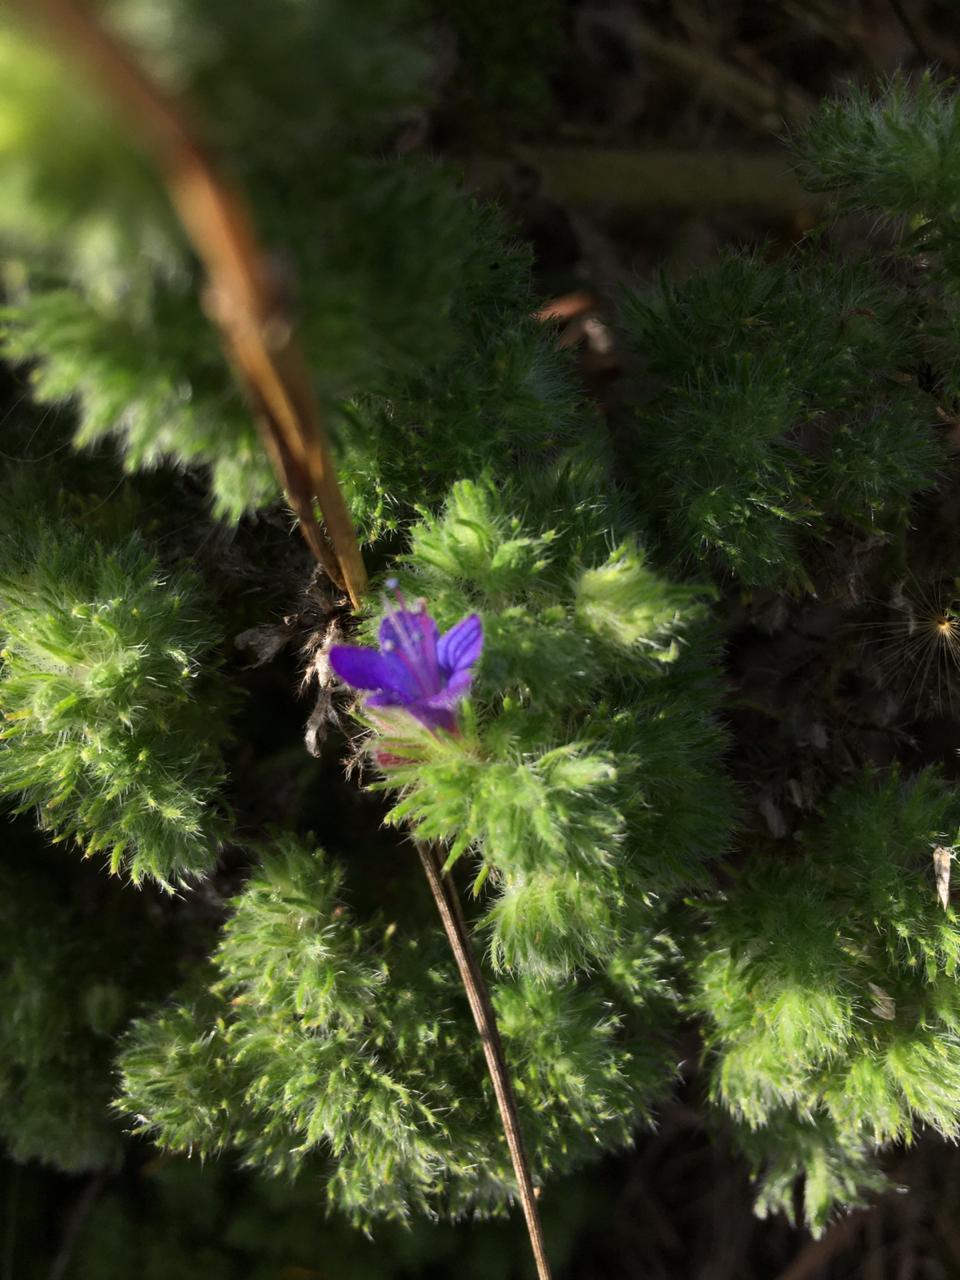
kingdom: Plantae
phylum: Tracheophyta
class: Magnoliopsida
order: Boraginales
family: Boraginaceae
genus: Echium
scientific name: Echium vulgare
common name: Common viper's bugloss
